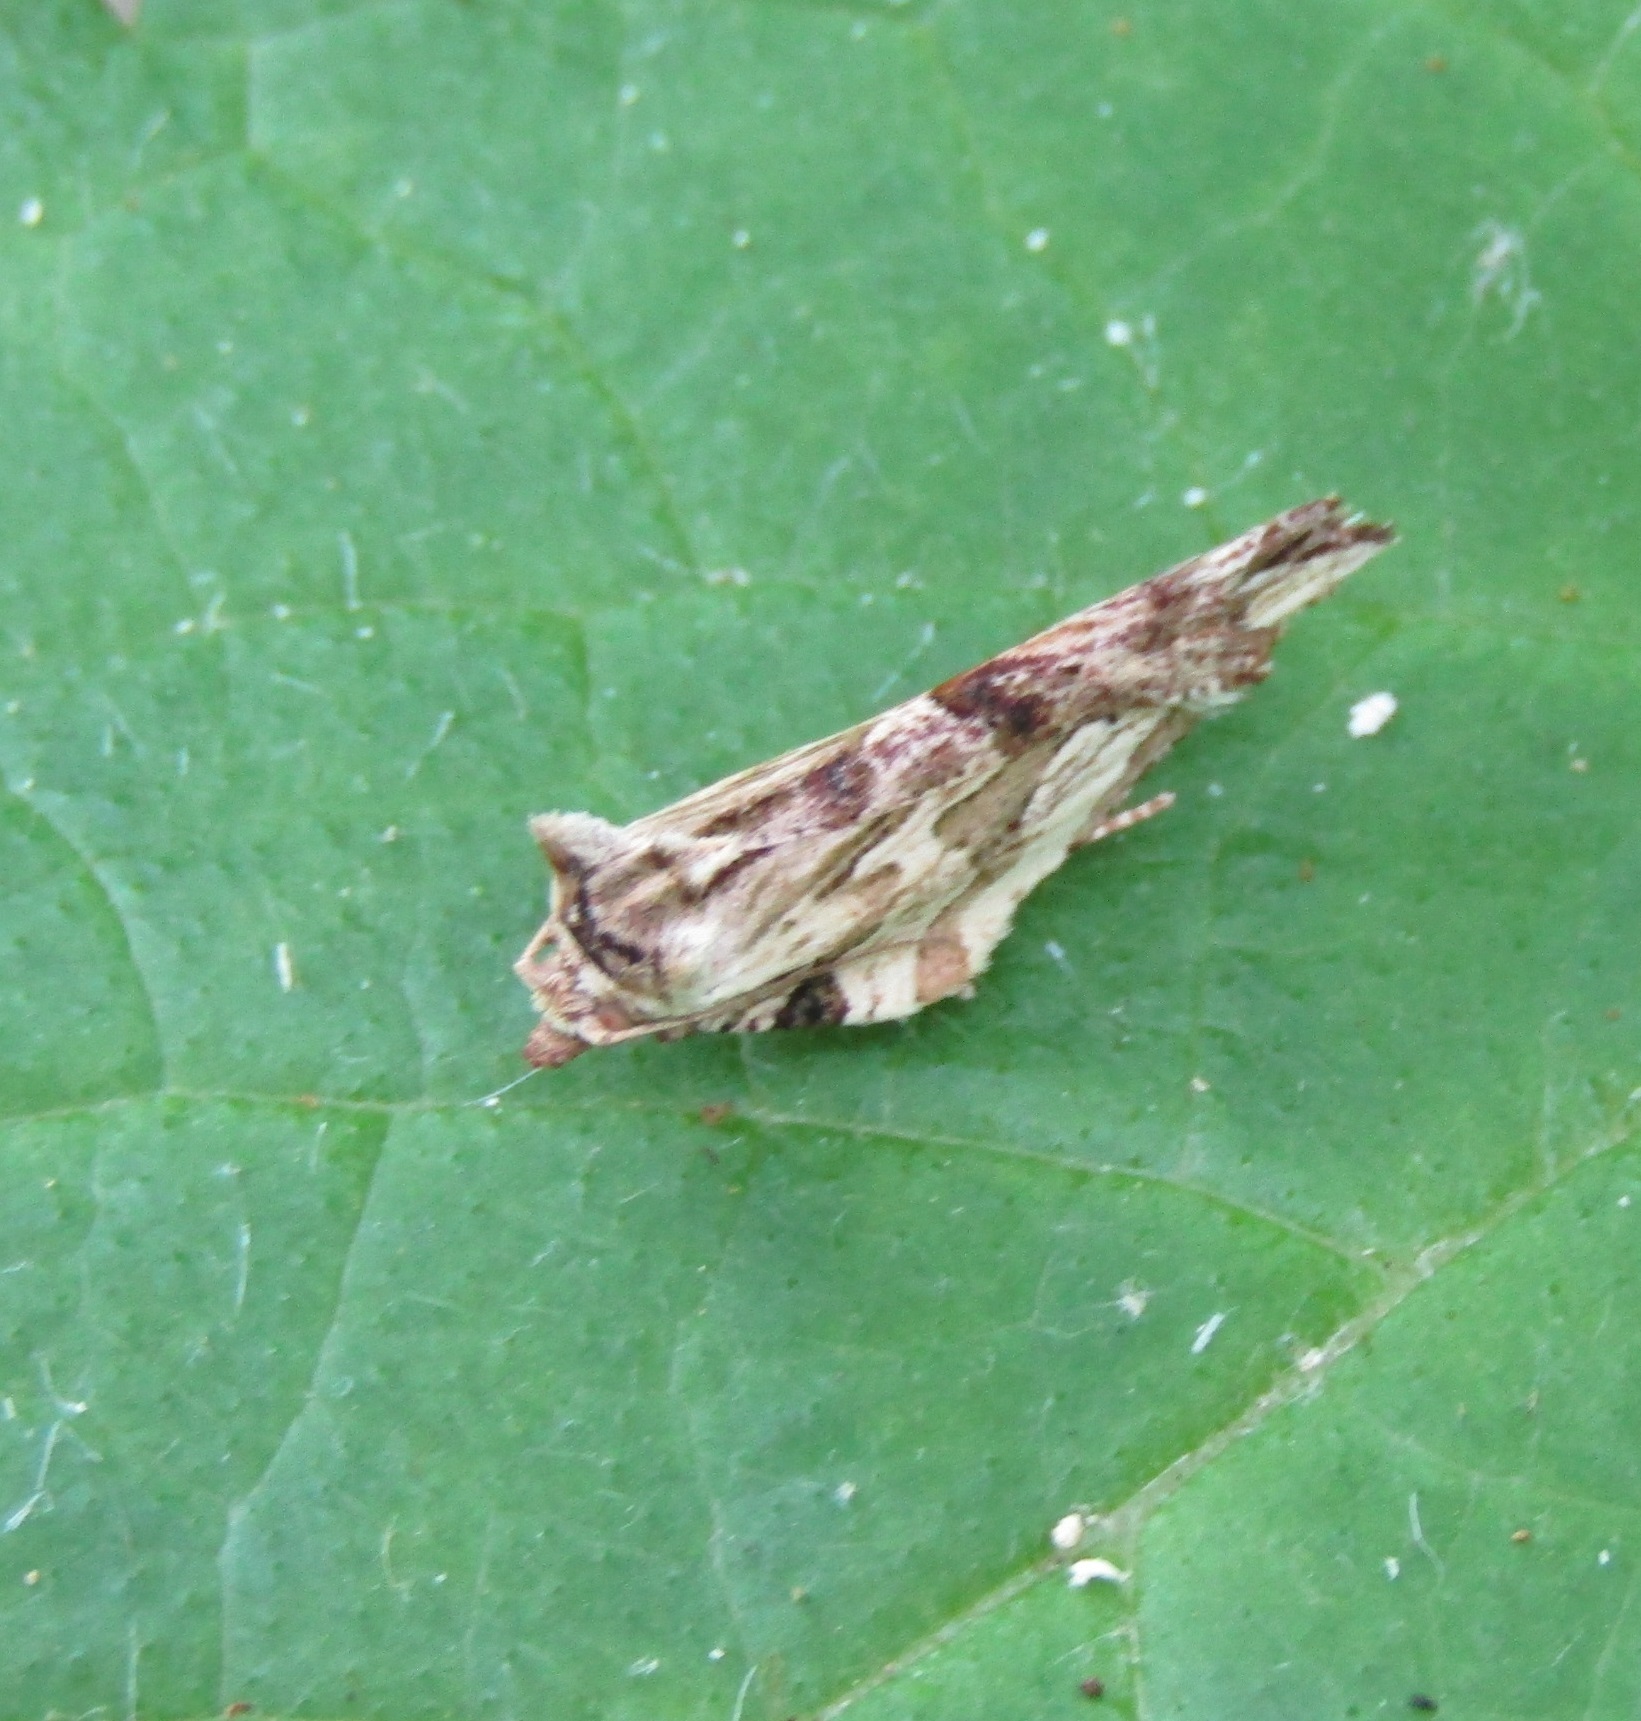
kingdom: Animalia
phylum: Arthropoda
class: Insecta
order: Lepidoptera
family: Tortricidae
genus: Epalxiphora
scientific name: Epalxiphora axenana
